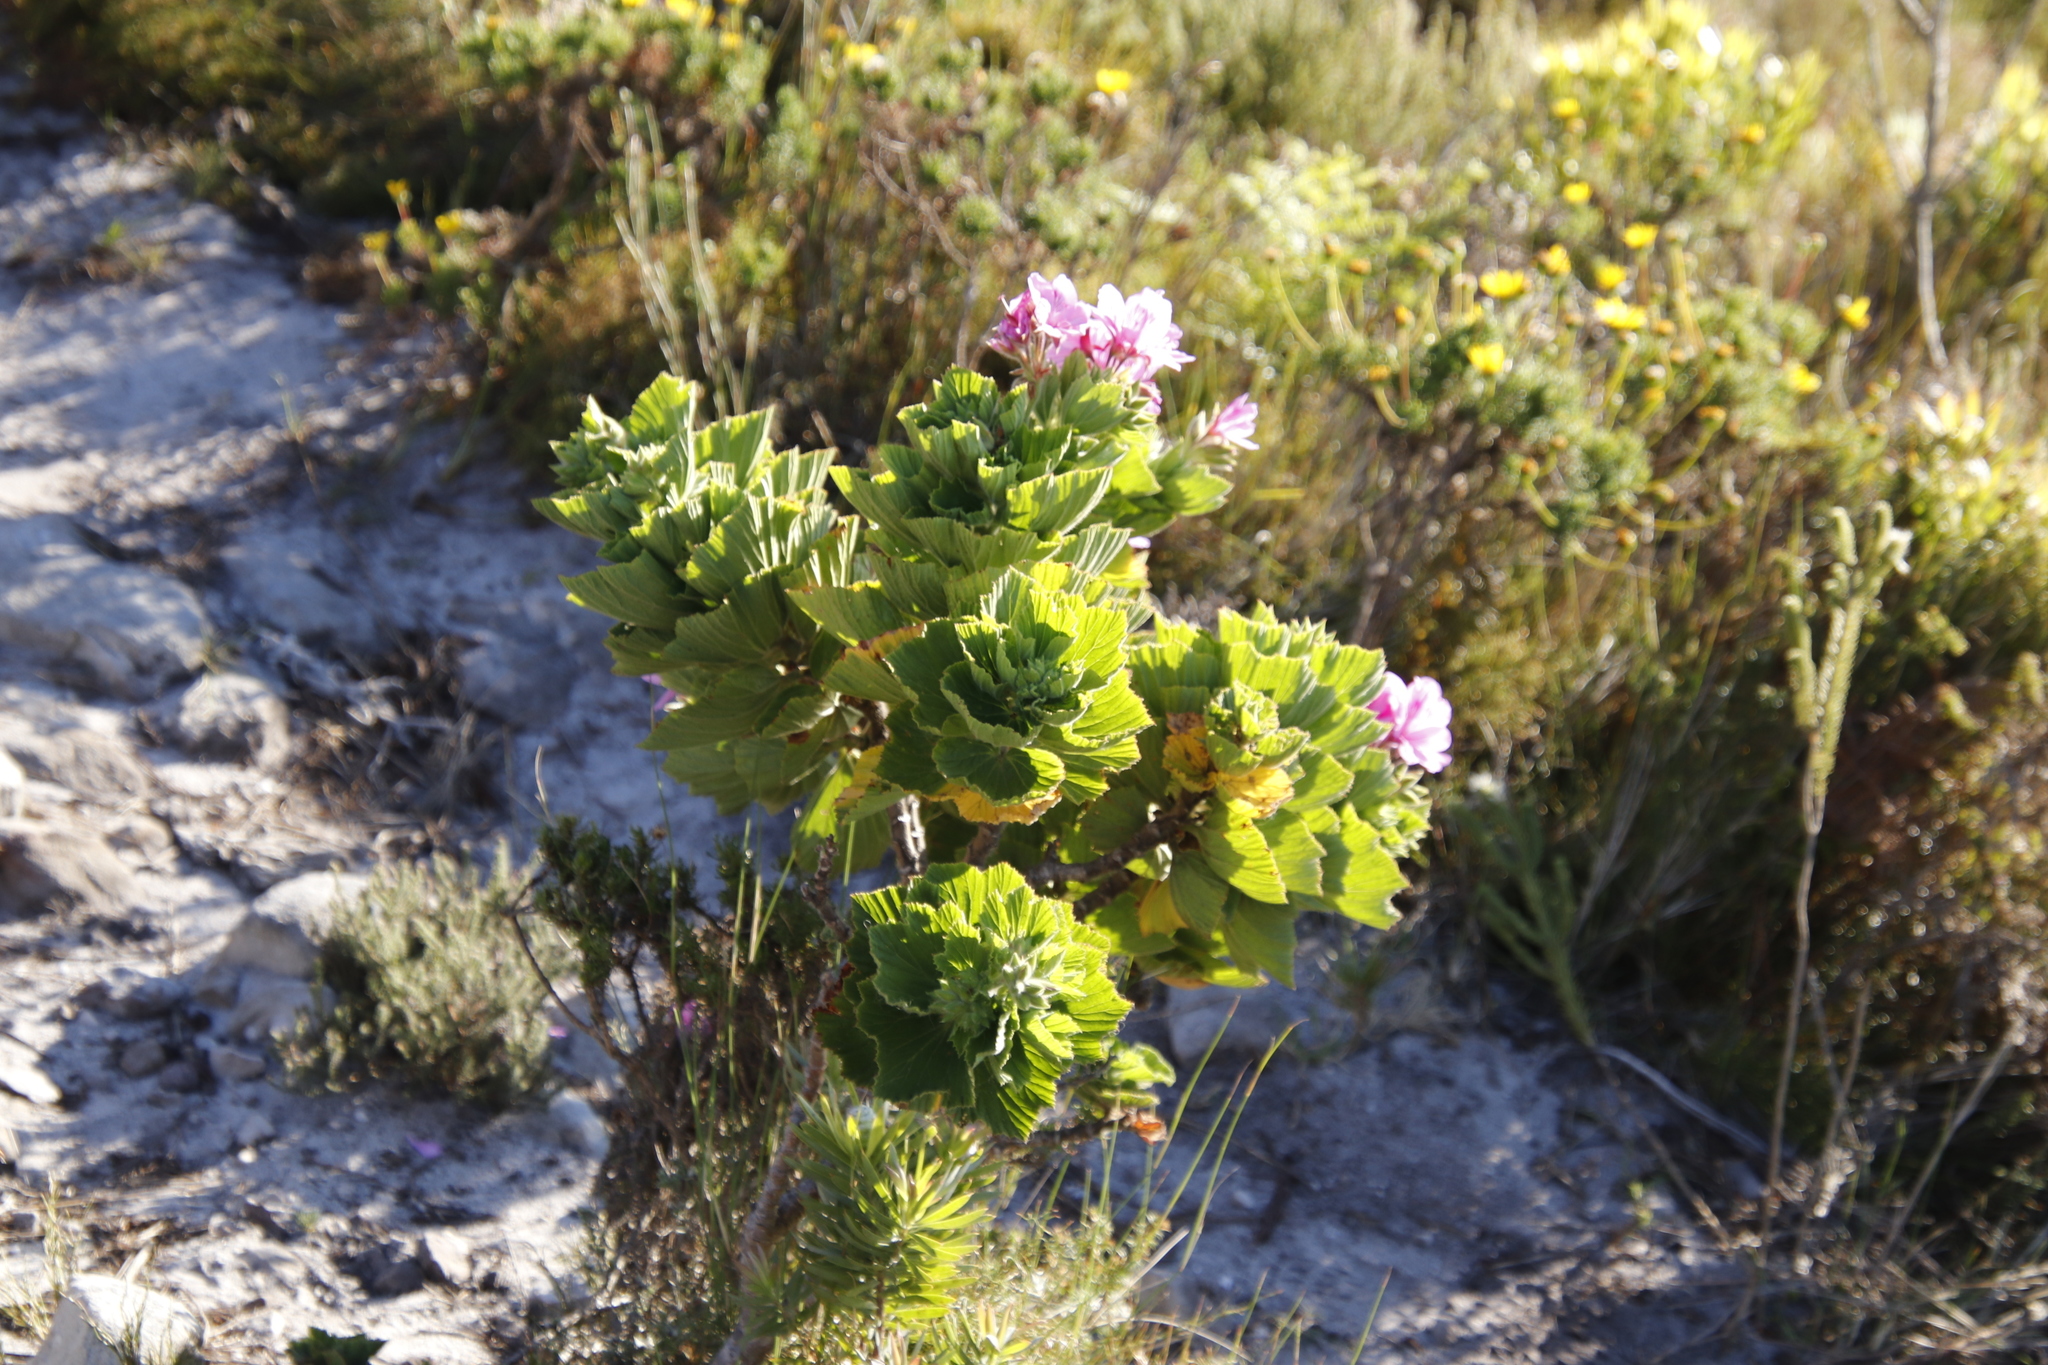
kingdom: Plantae
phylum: Tracheophyta
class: Magnoliopsida
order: Geraniales
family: Geraniaceae
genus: Pelargonium
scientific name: Pelargonium cucullatum
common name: Tree pelargonium
